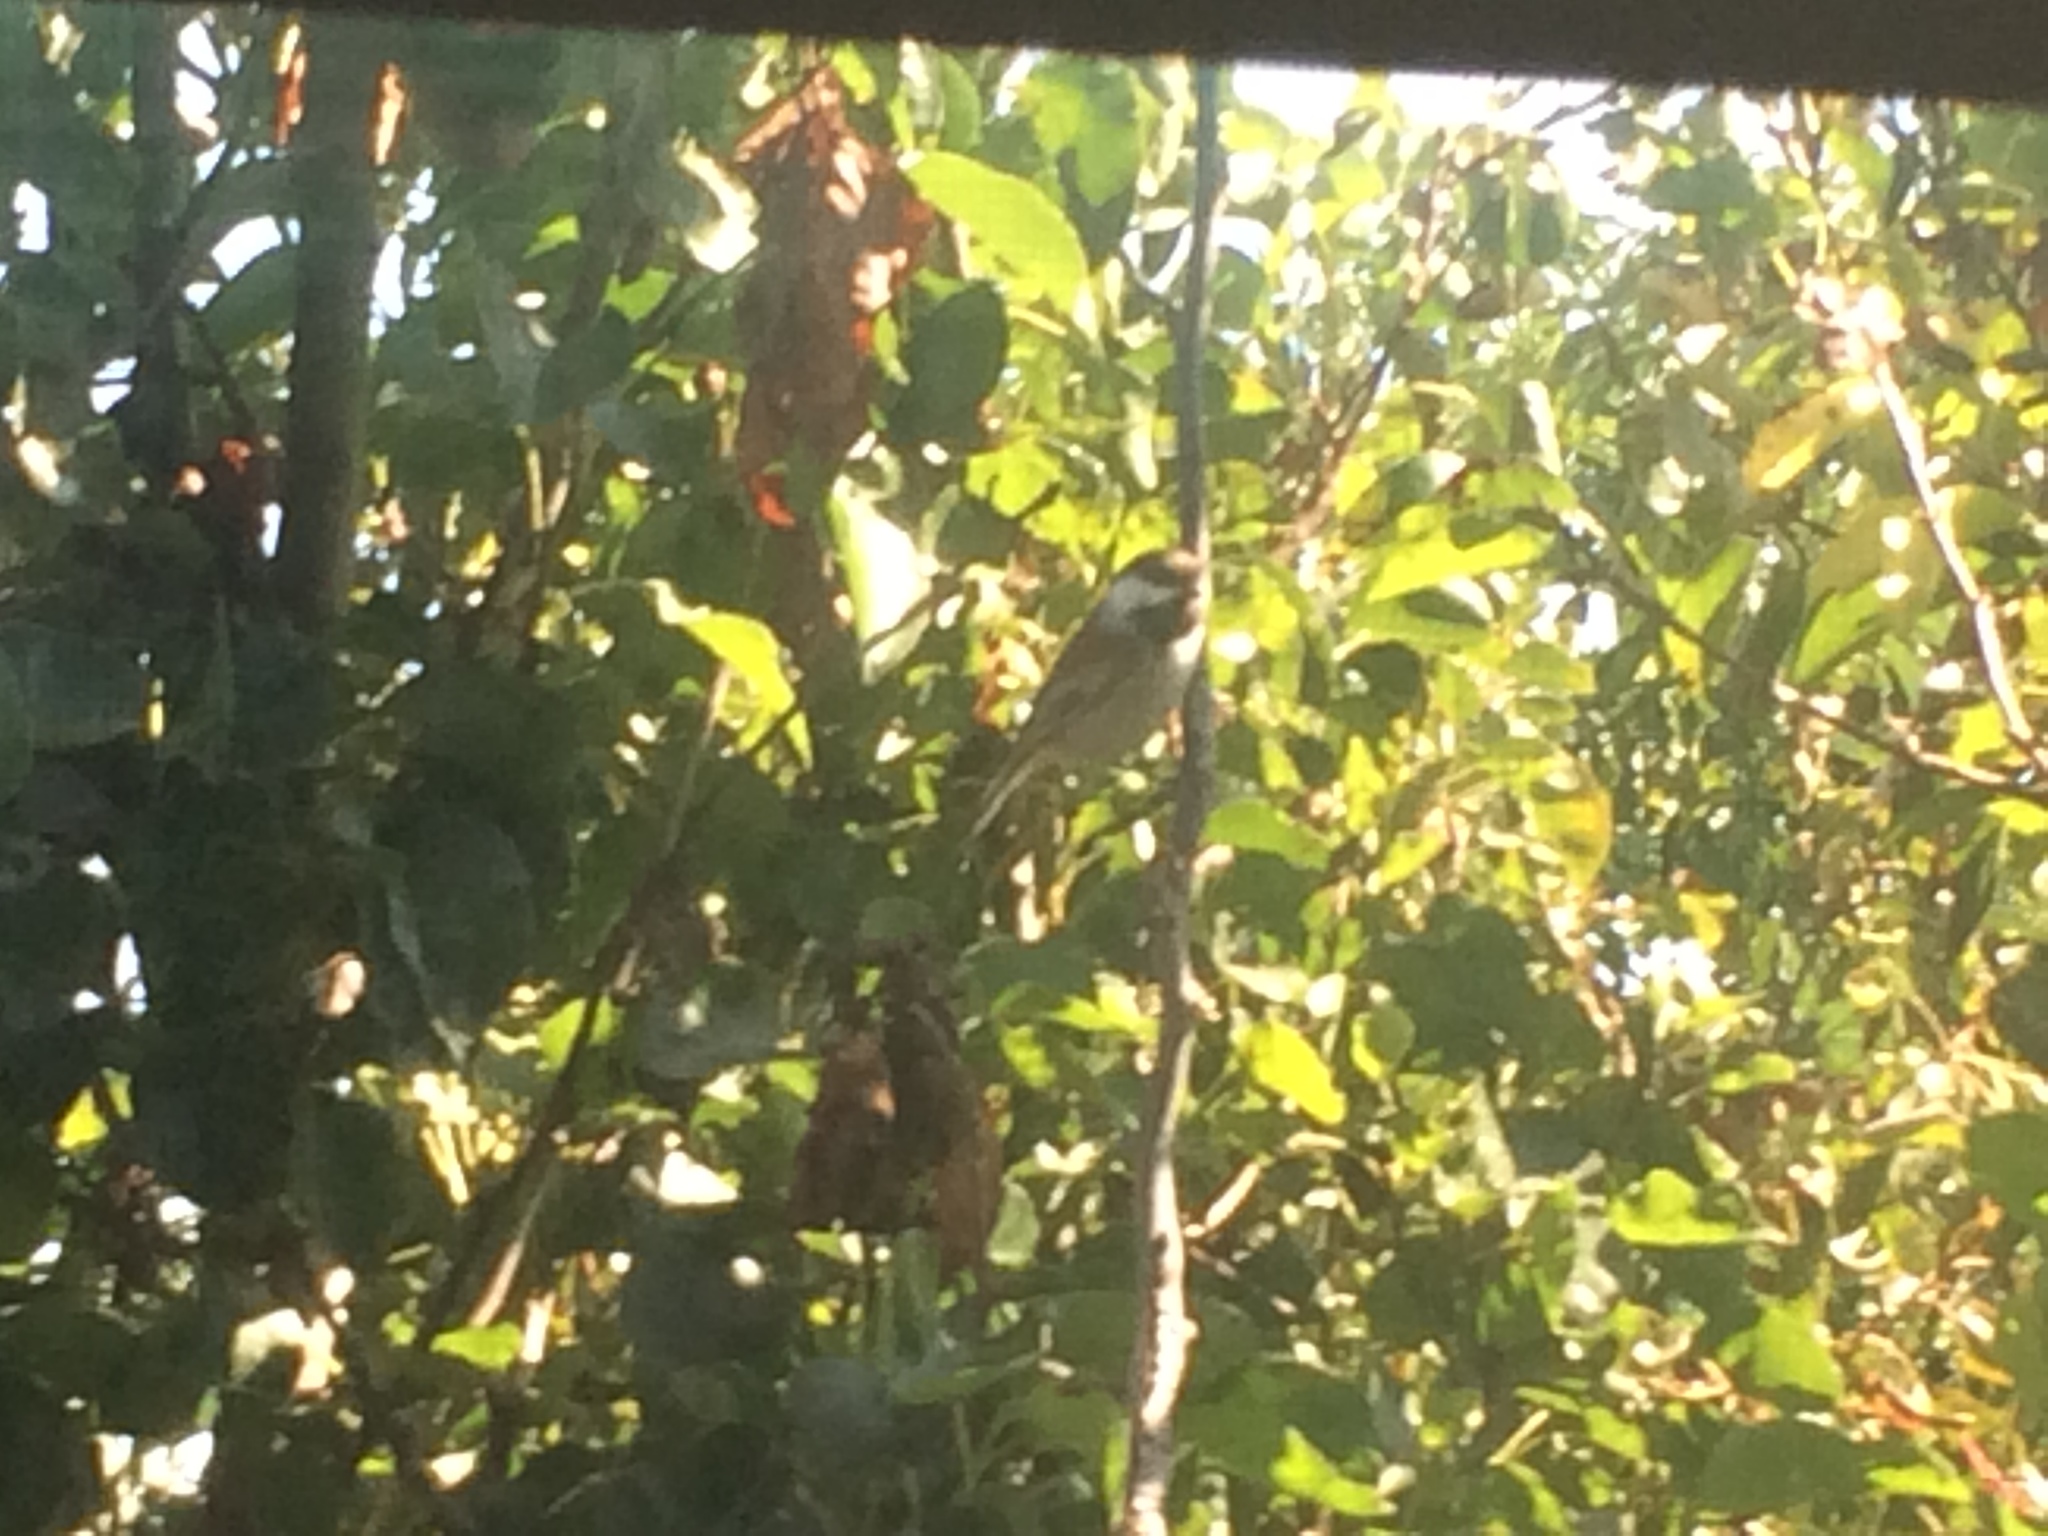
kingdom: Animalia
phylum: Chordata
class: Aves
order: Passeriformes
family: Paridae
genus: Poecile
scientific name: Poecile rufescens
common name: Chestnut-backed chickadee
